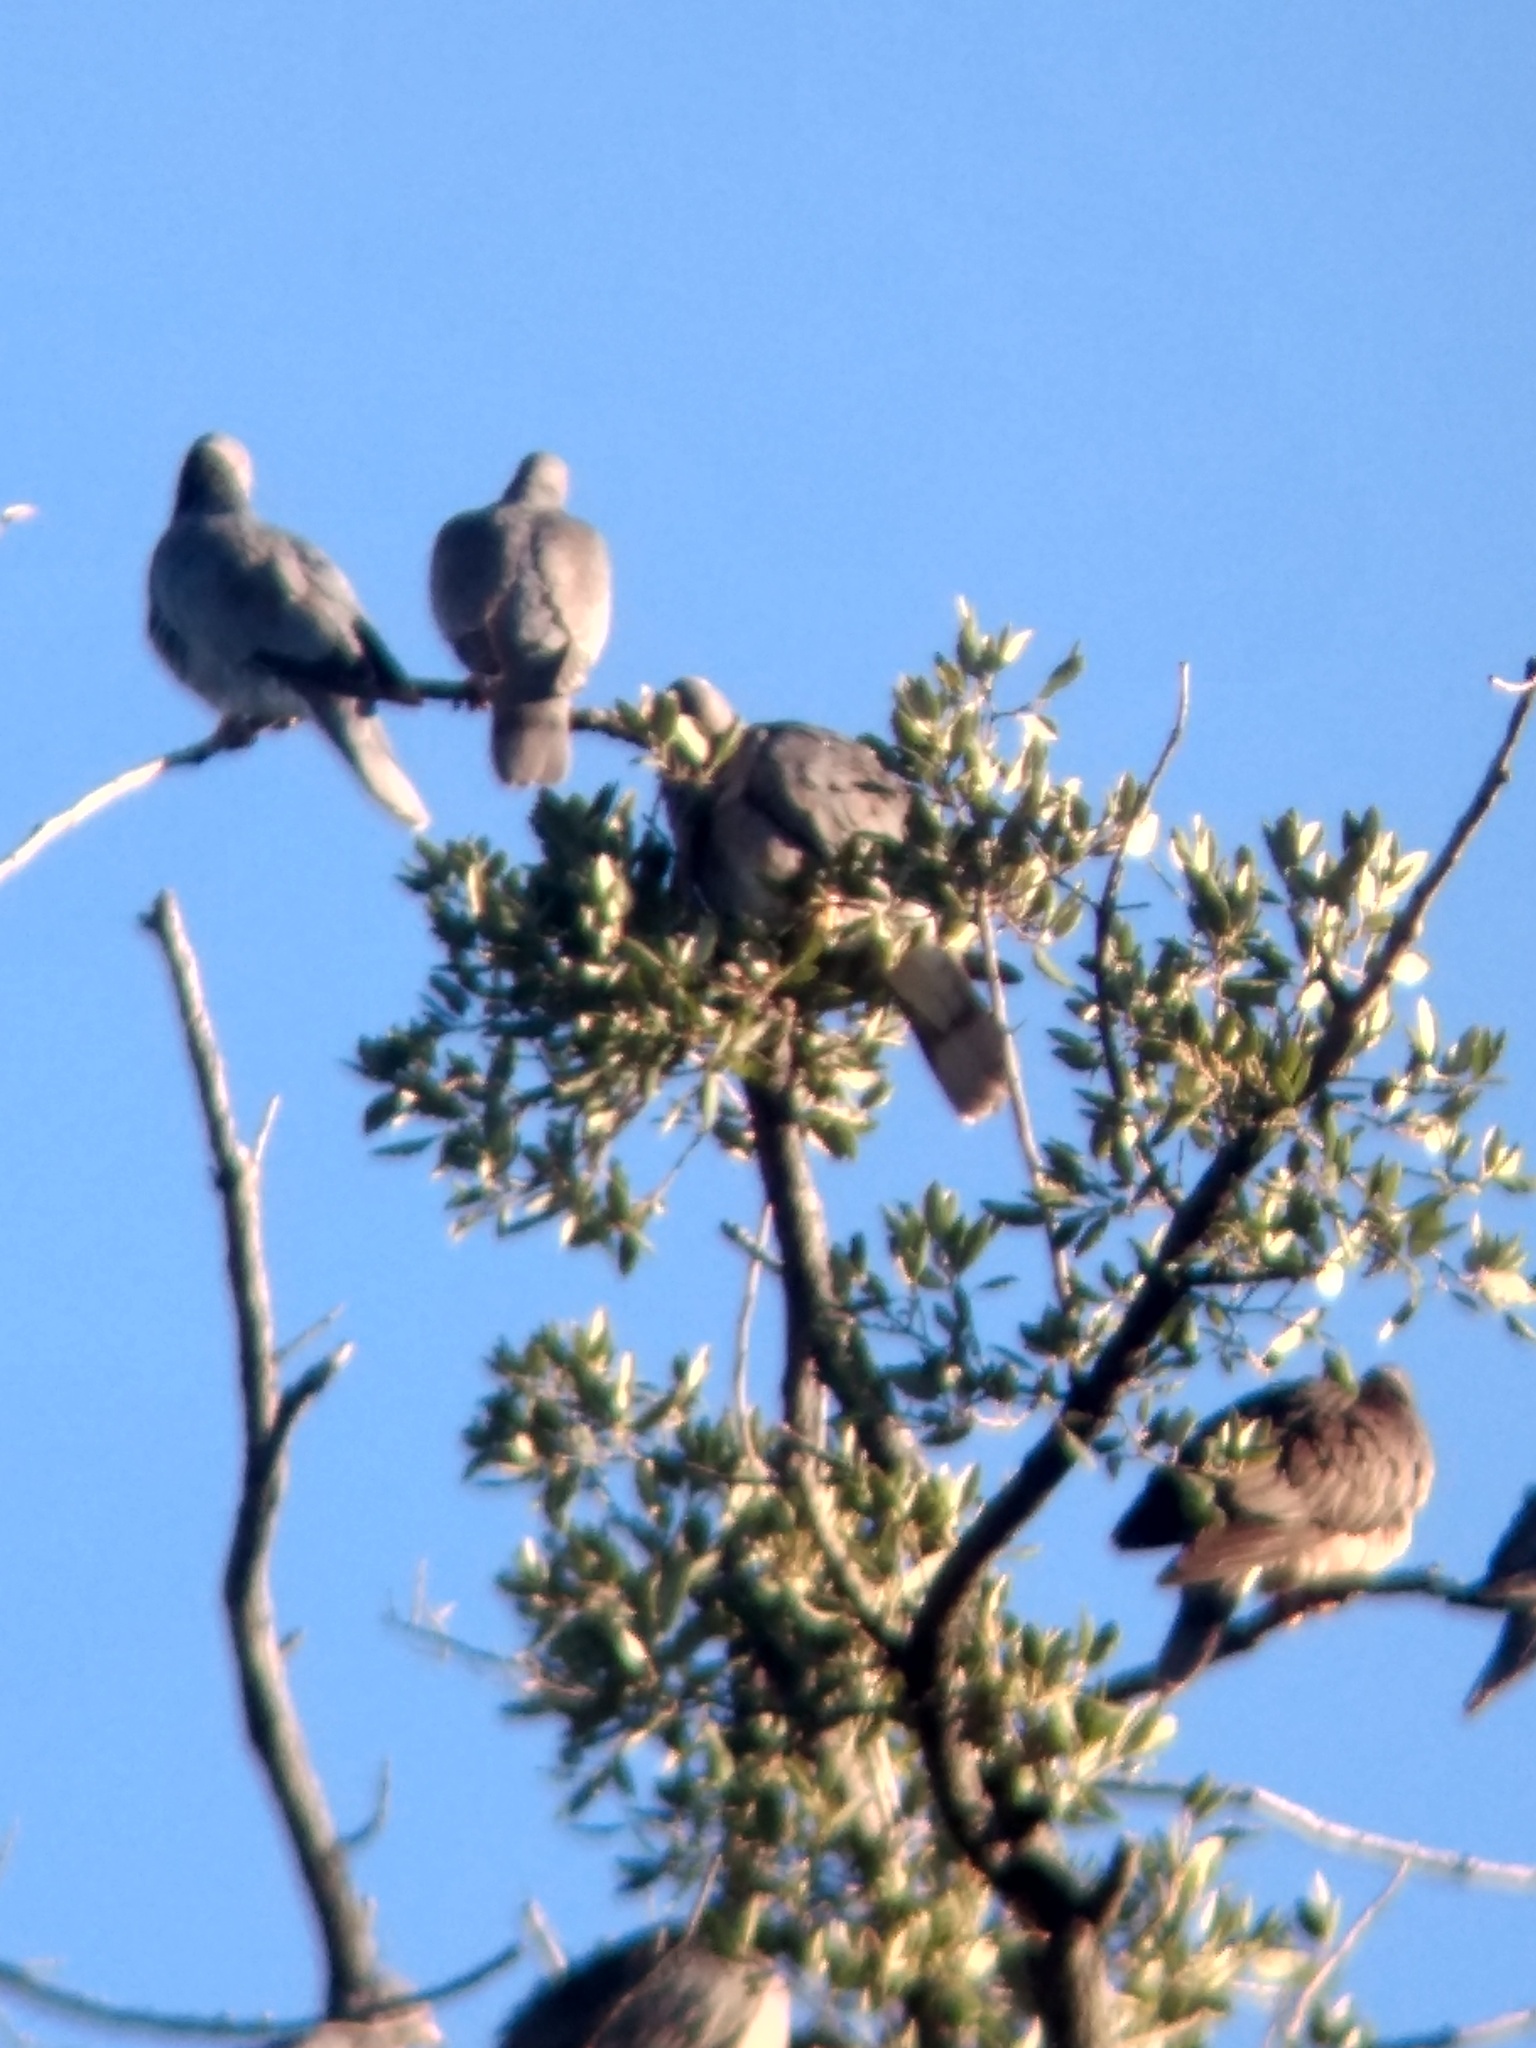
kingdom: Animalia
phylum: Chordata
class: Aves
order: Columbiformes
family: Columbidae
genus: Patagioenas
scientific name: Patagioenas fasciata
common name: Band-tailed pigeon
